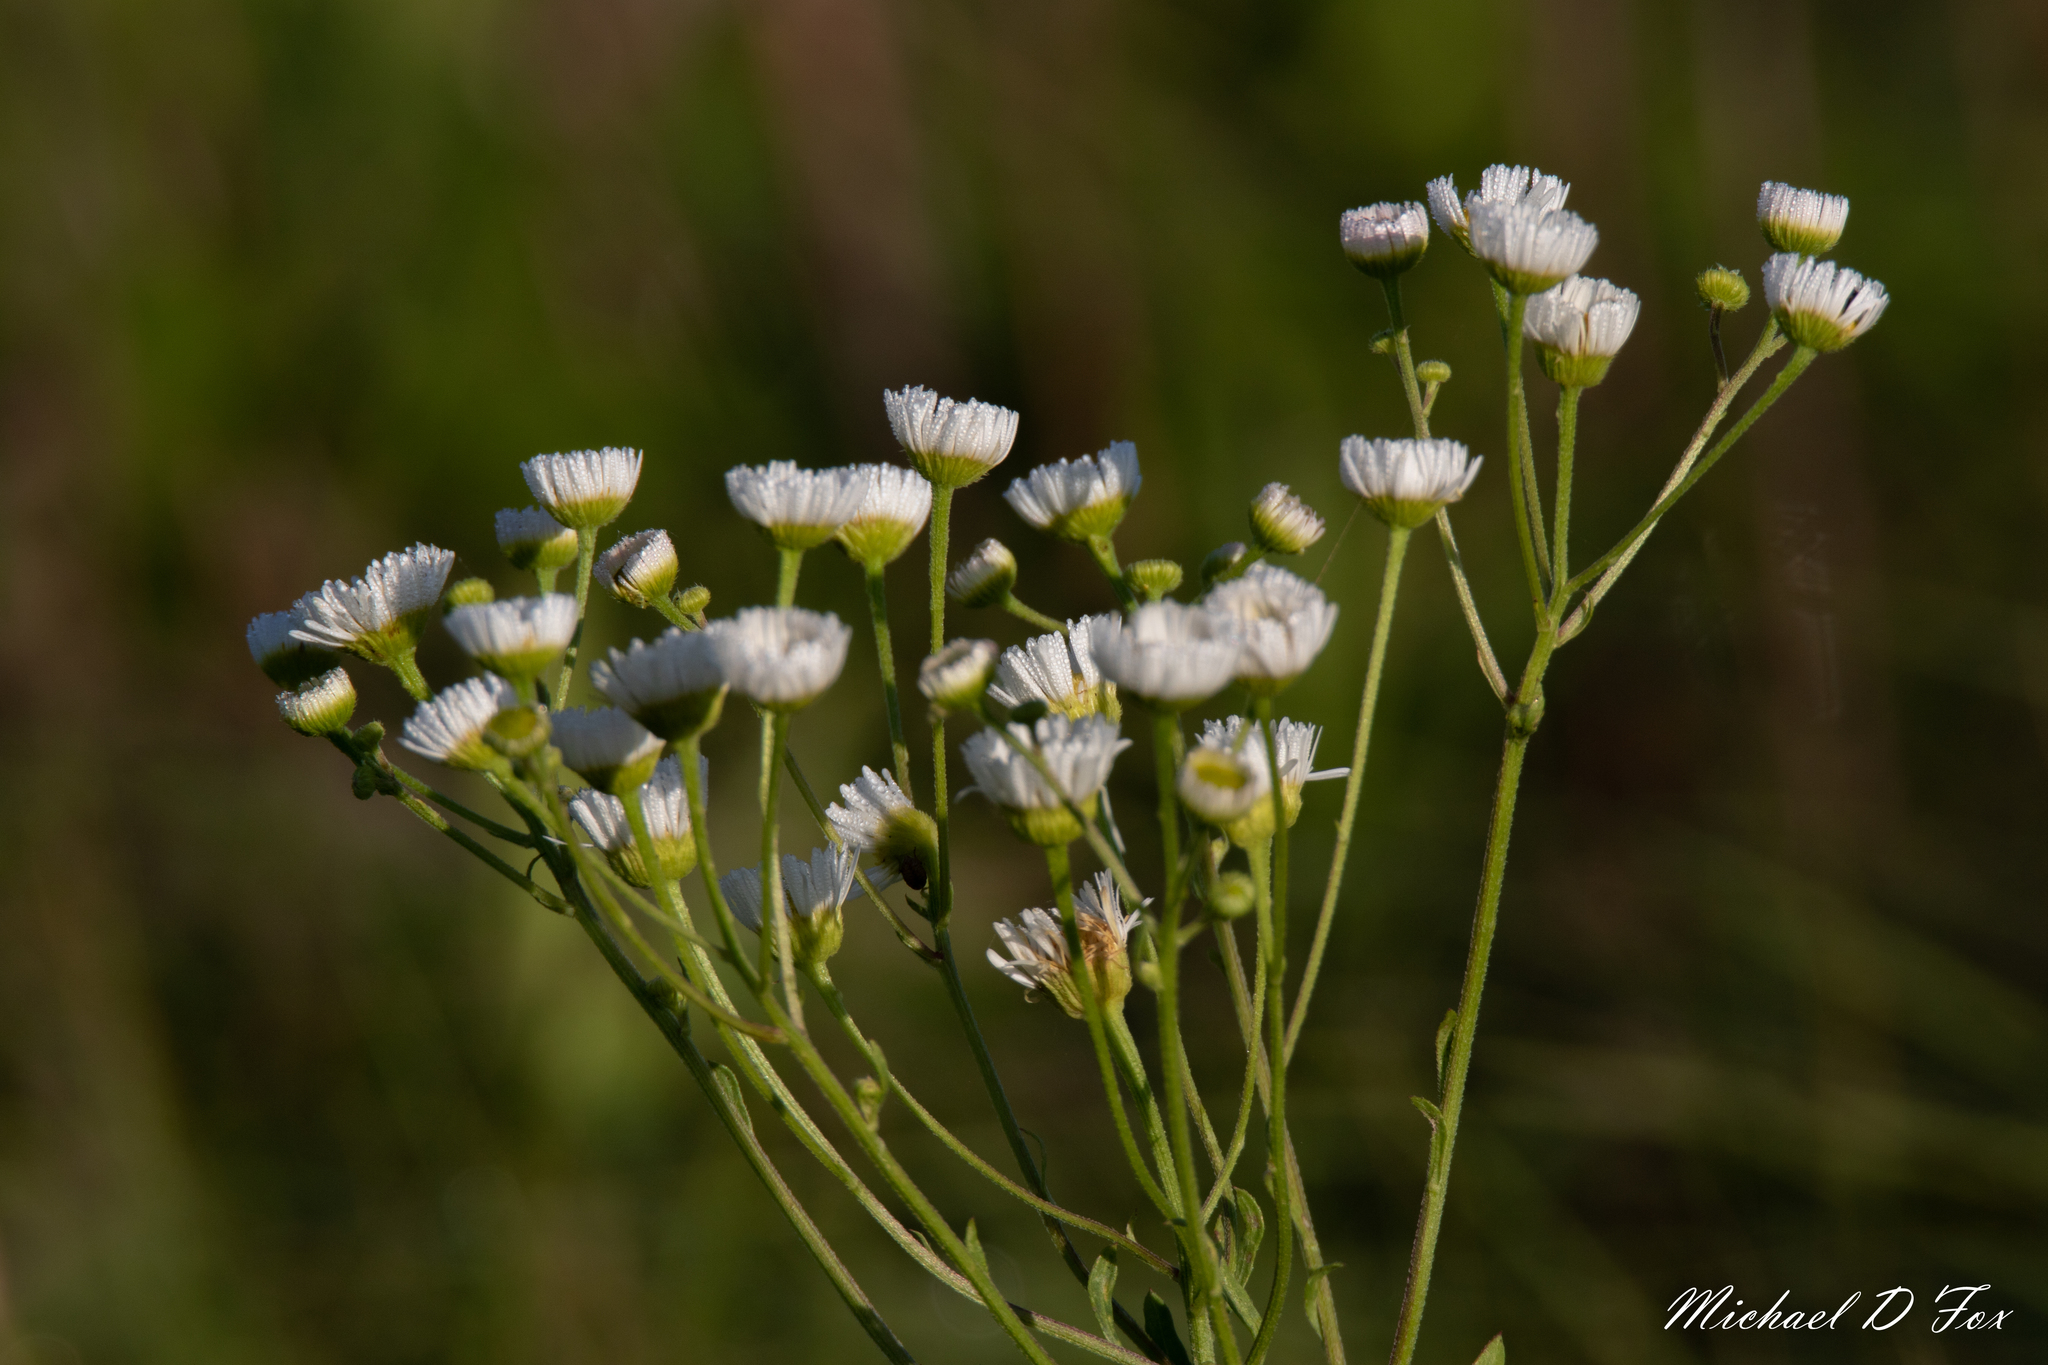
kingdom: Plantae
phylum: Tracheophyta
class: Magnoliopsida
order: Asterales
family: Asteraceae
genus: Erigeron
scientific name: Erigeron strigosus
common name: Common eastern fleabane
